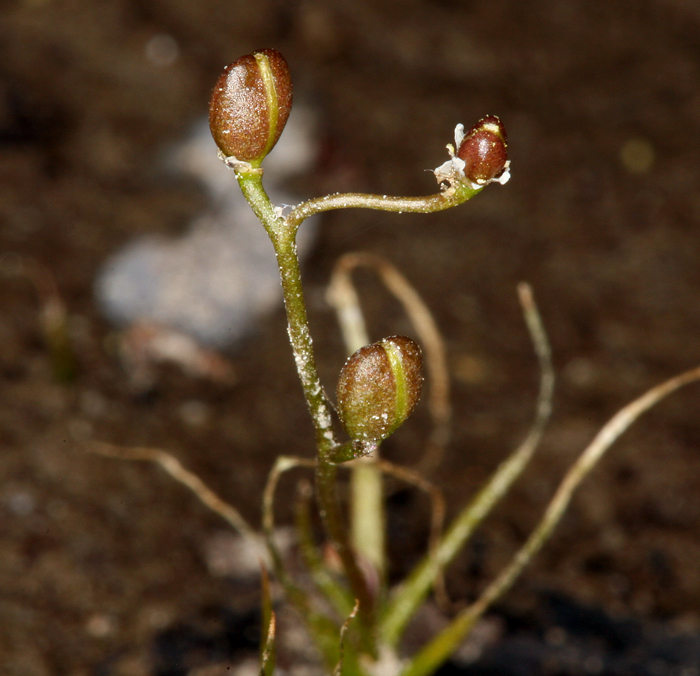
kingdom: Plantae
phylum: Tracheophyta
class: Magnoliopsida
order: Brassicales
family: Brassicaceae
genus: Subularia
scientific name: Subularia aquatica
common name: Awlwort
